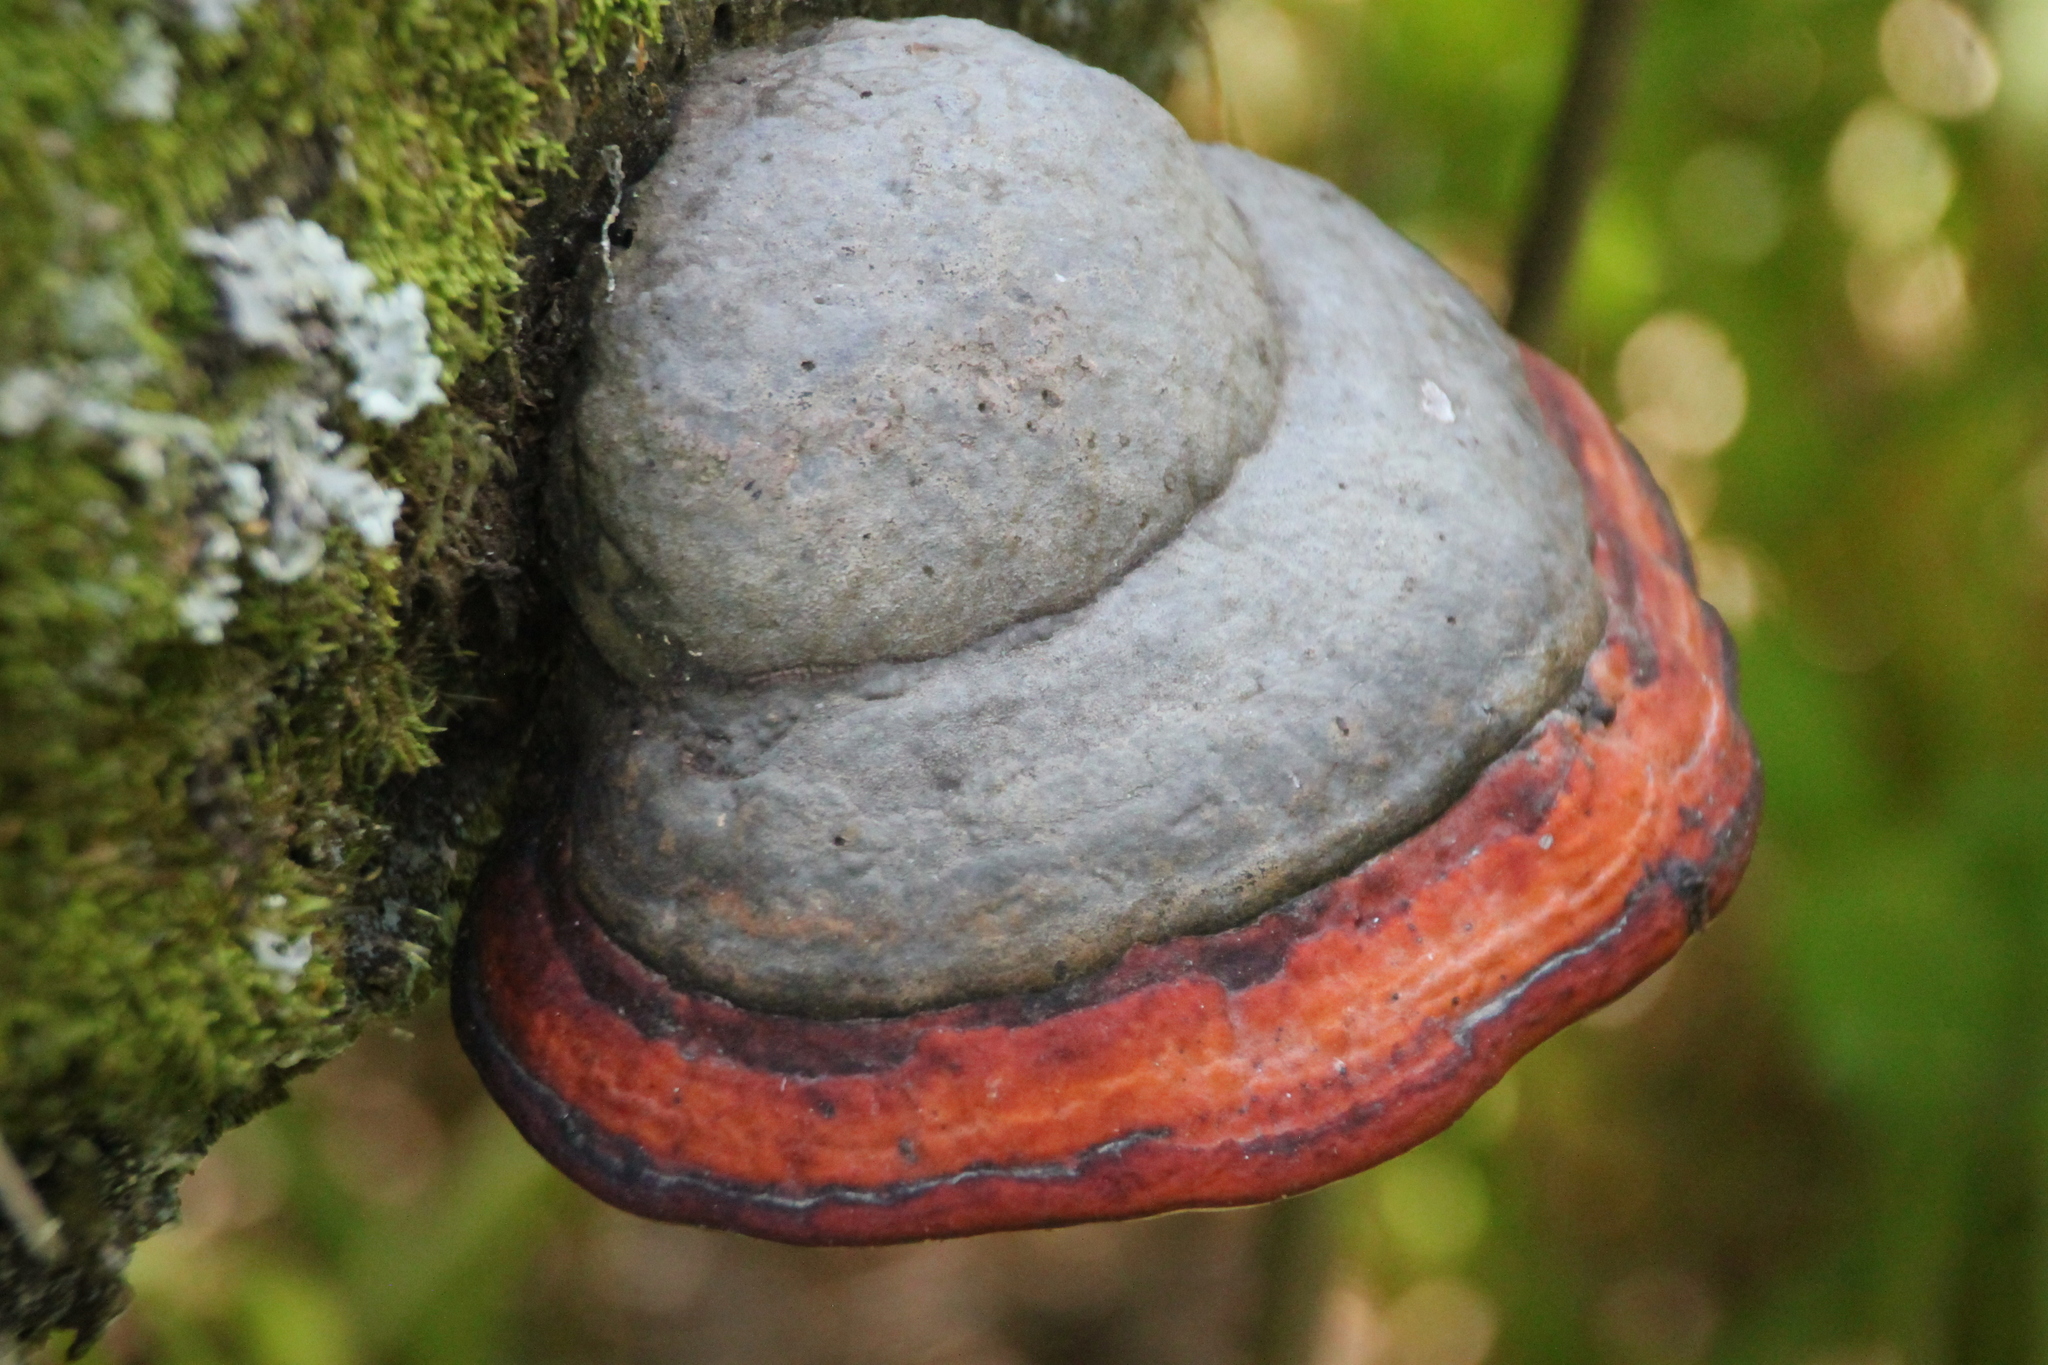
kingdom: Fungi
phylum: Basidiomycota
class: Agaricomycetes
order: Polyporales
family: Fomitopsidaceae
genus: Fomitopsis
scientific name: Fomitopsis pinicola
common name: Red-belted bracket
